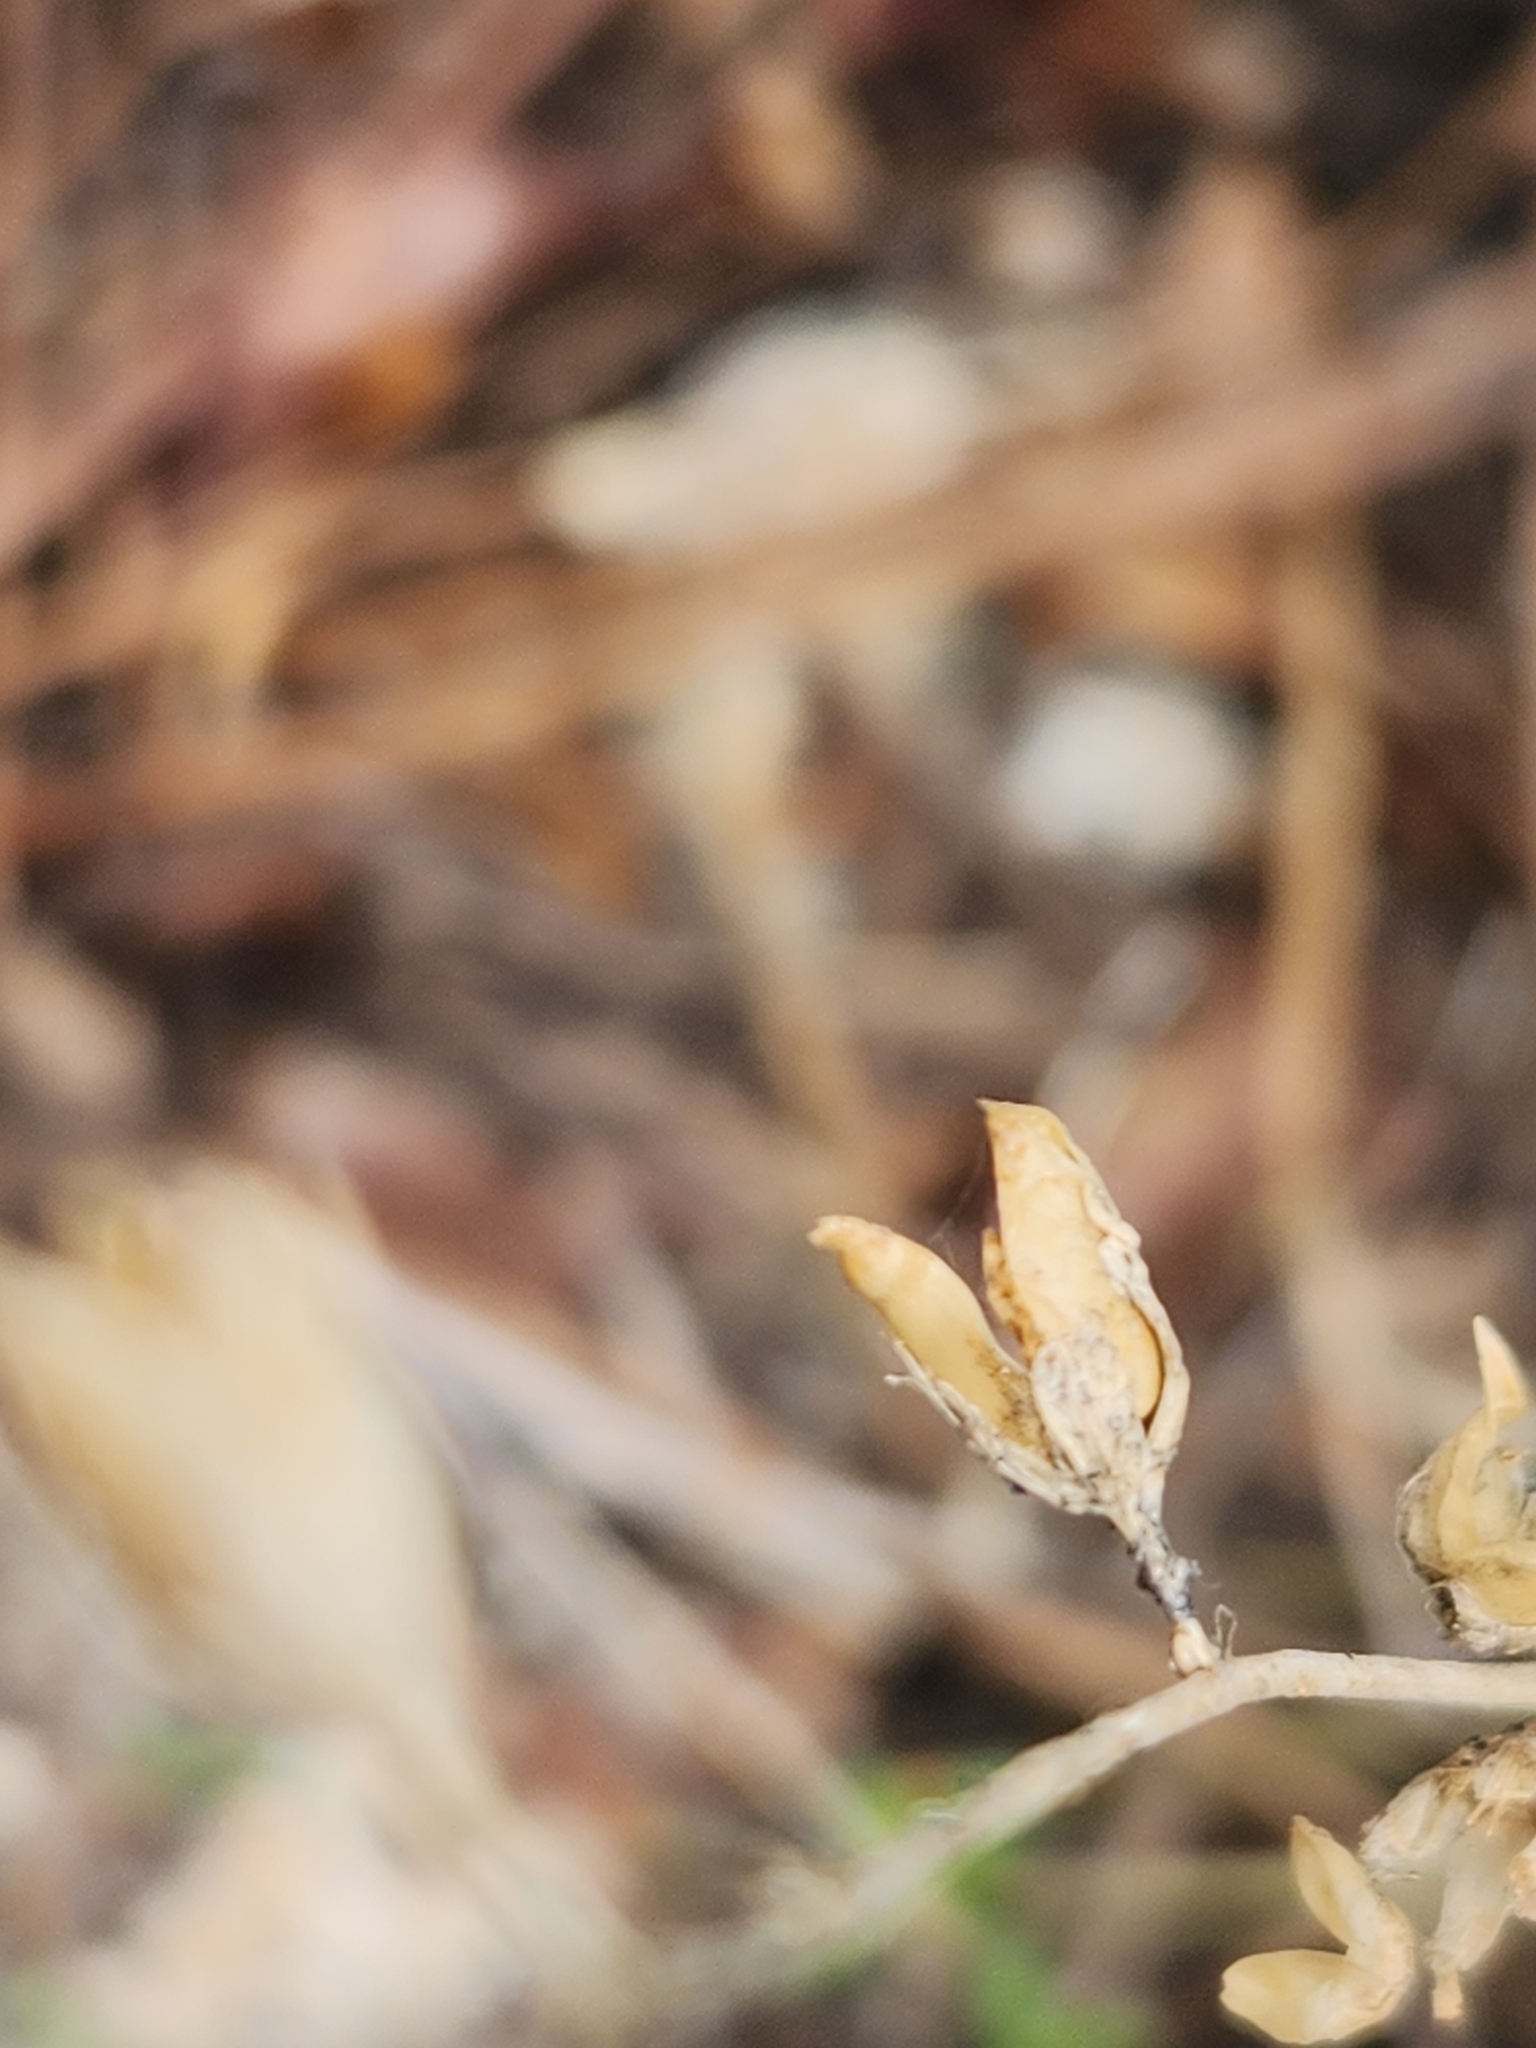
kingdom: Plantae
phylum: Tracheophyta
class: Magnoliopsida
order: Lamiales
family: Plantaginaceae
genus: Keckiella
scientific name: Keckiella rothrockii
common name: Rothrock's keckiella
